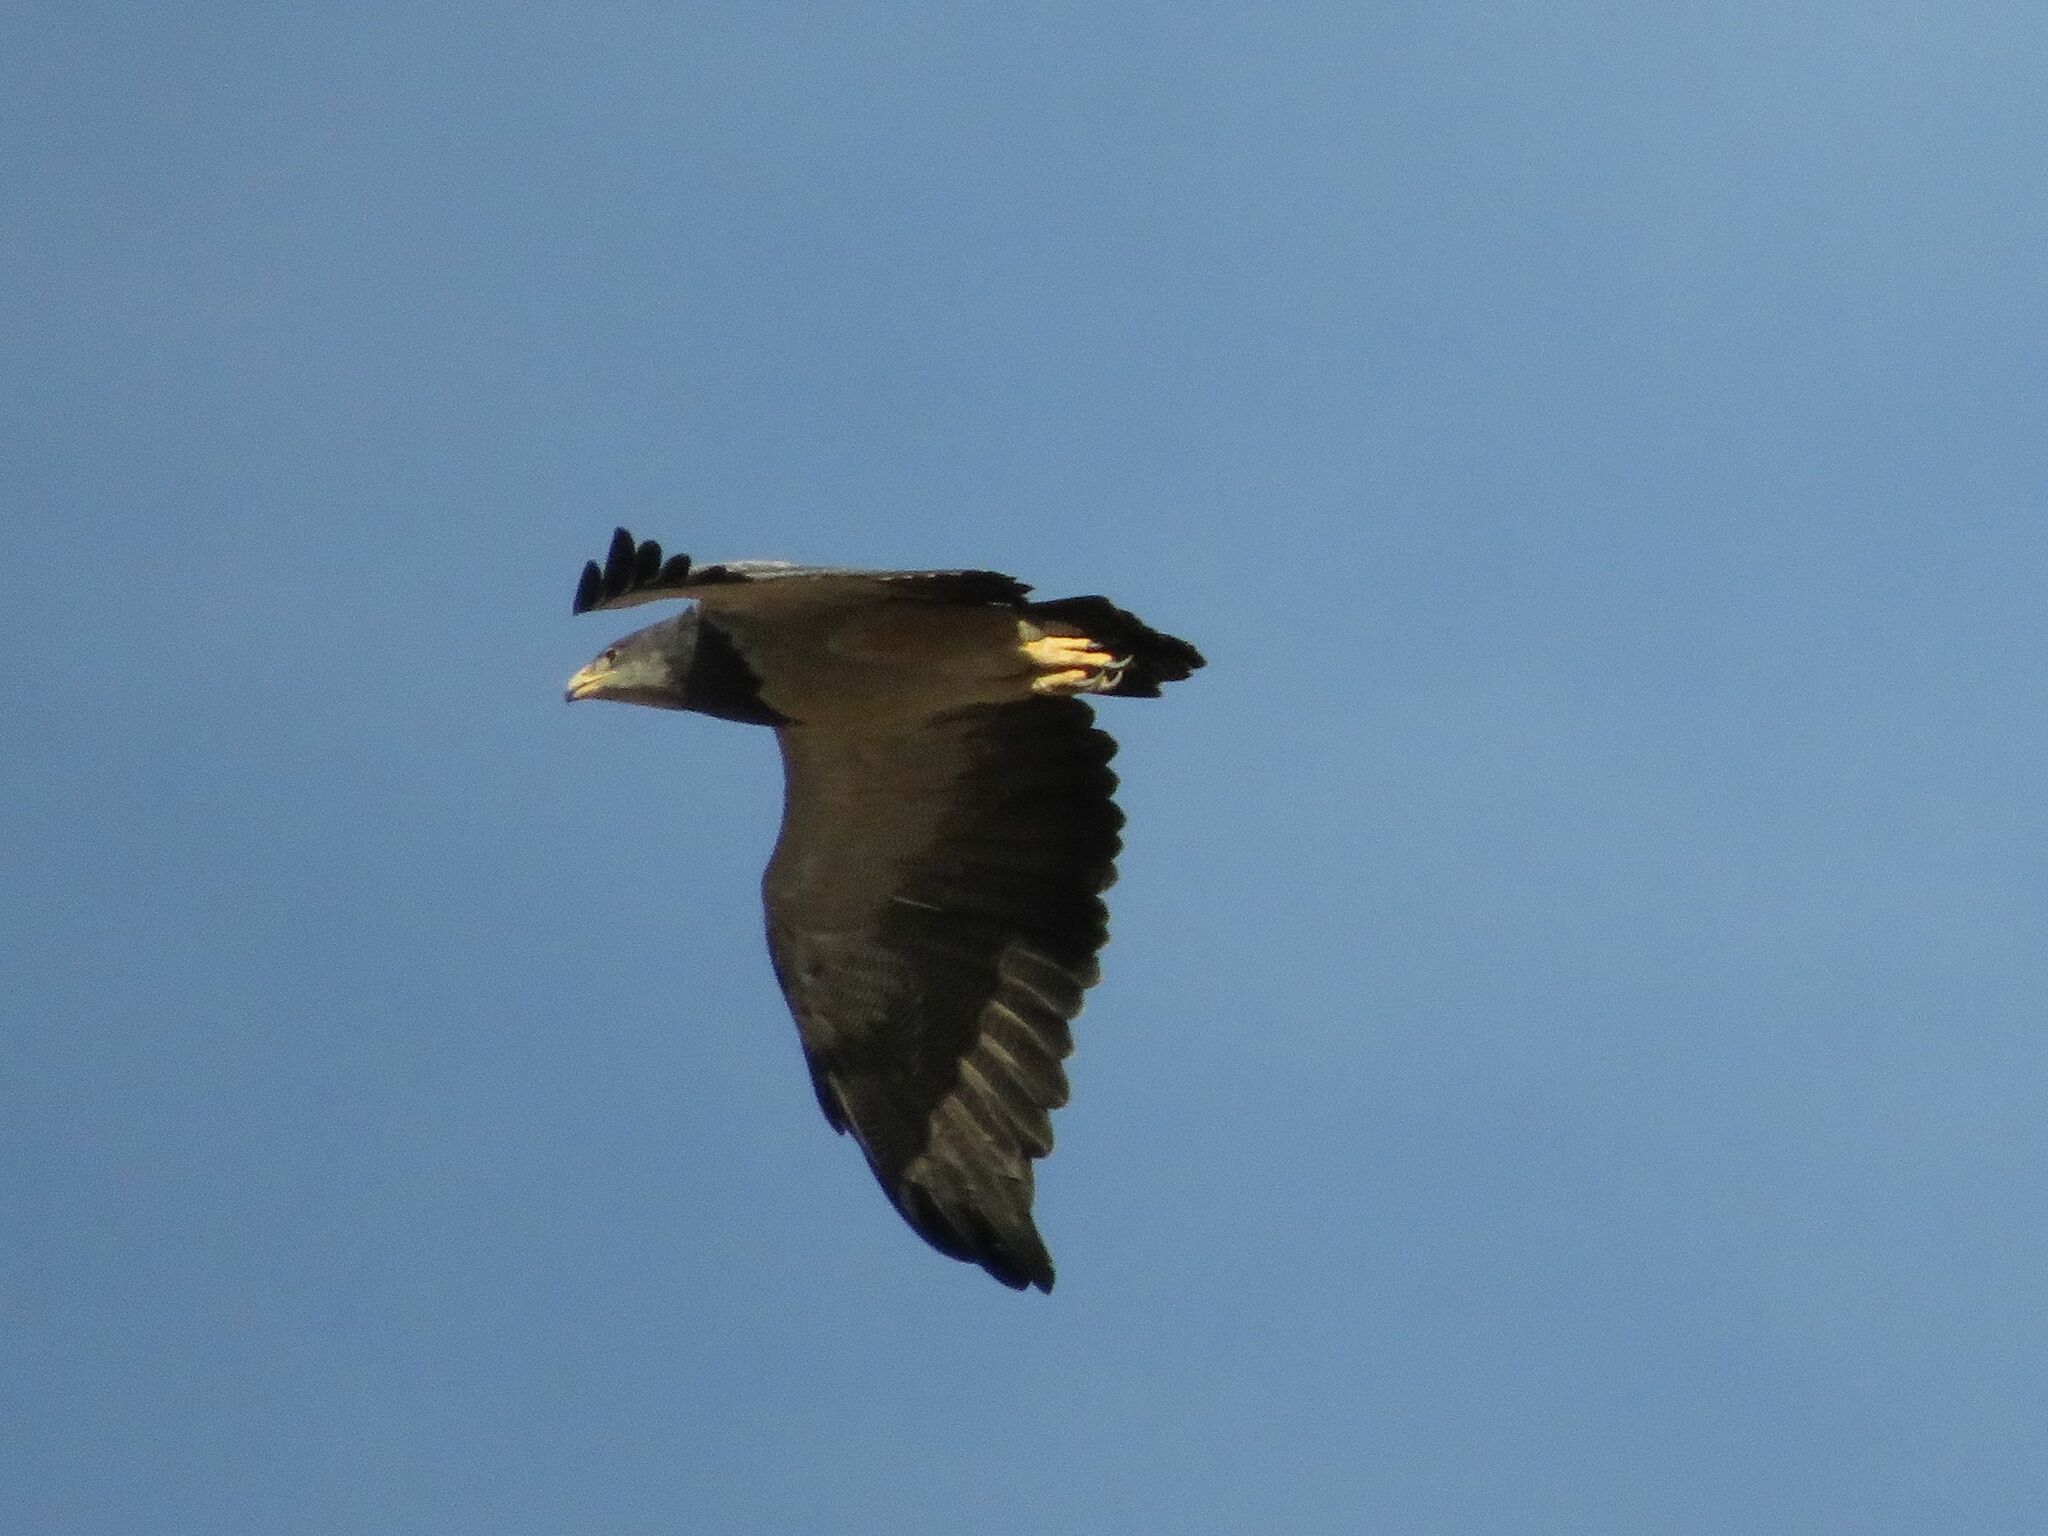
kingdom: Animalia
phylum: Chordata
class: Aves
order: Accipitriformes
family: Accipitridae
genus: Geranoaetus
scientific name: Geranoaetus melanoleucus
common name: Black-chested buzzard-eagle
